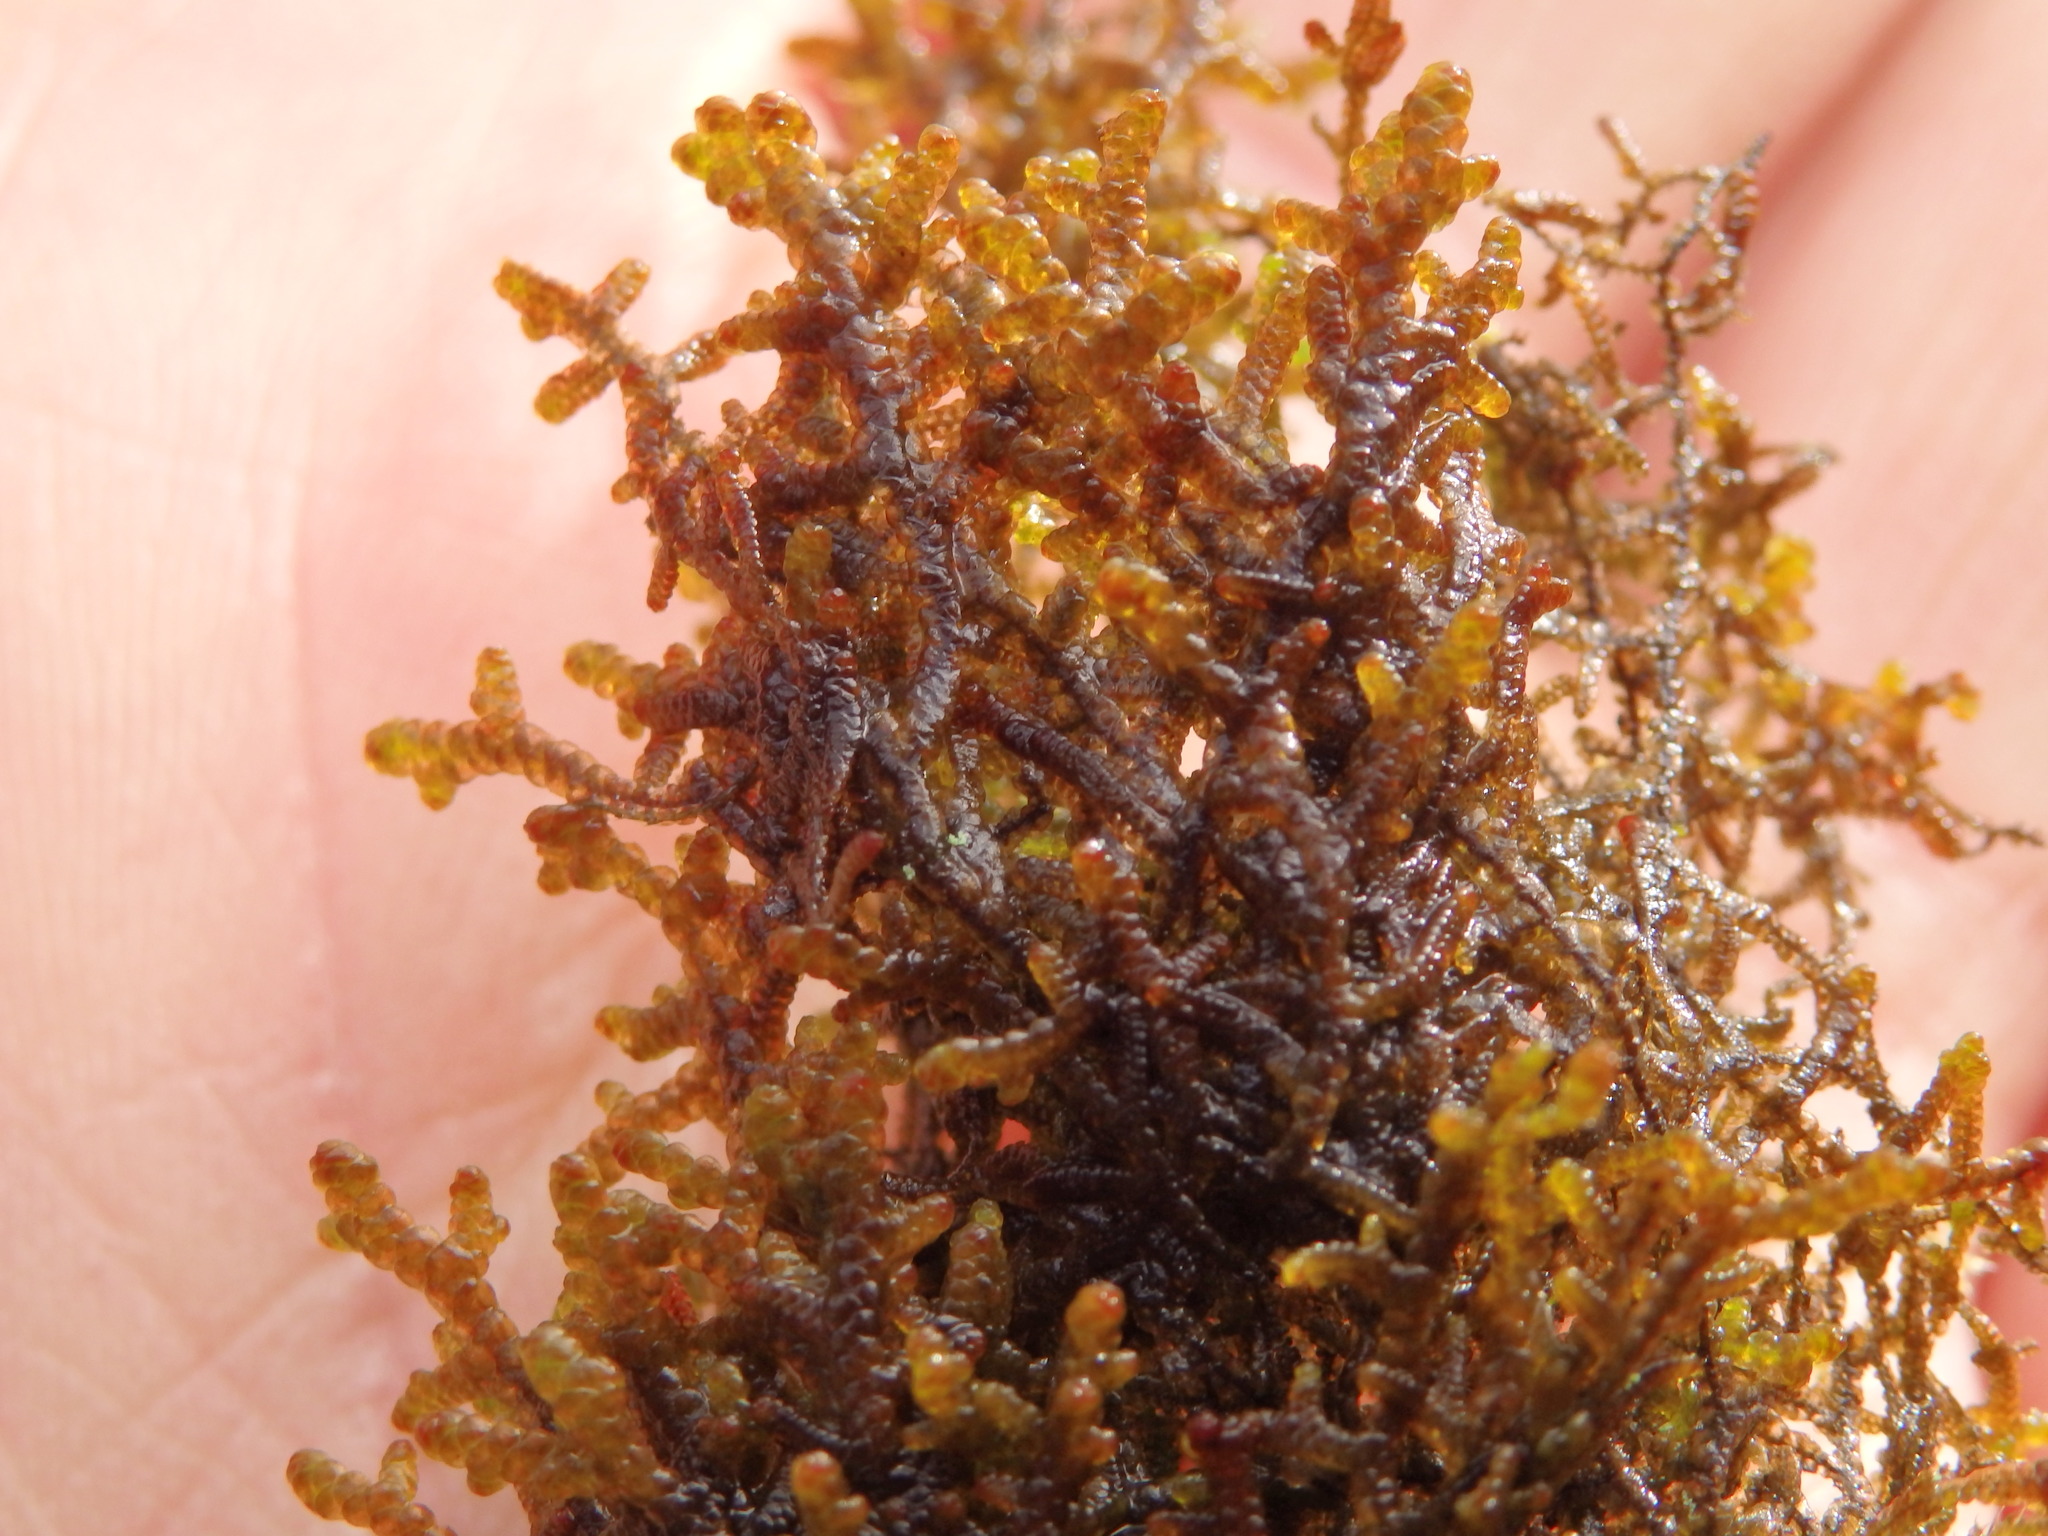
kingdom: Plantae
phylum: Marchantiophyta
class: Jungermanniopsida
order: Porellales
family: Frullaniaceae
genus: Frullania
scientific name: Frullania tamarisci
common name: Tamarisk scalewort
